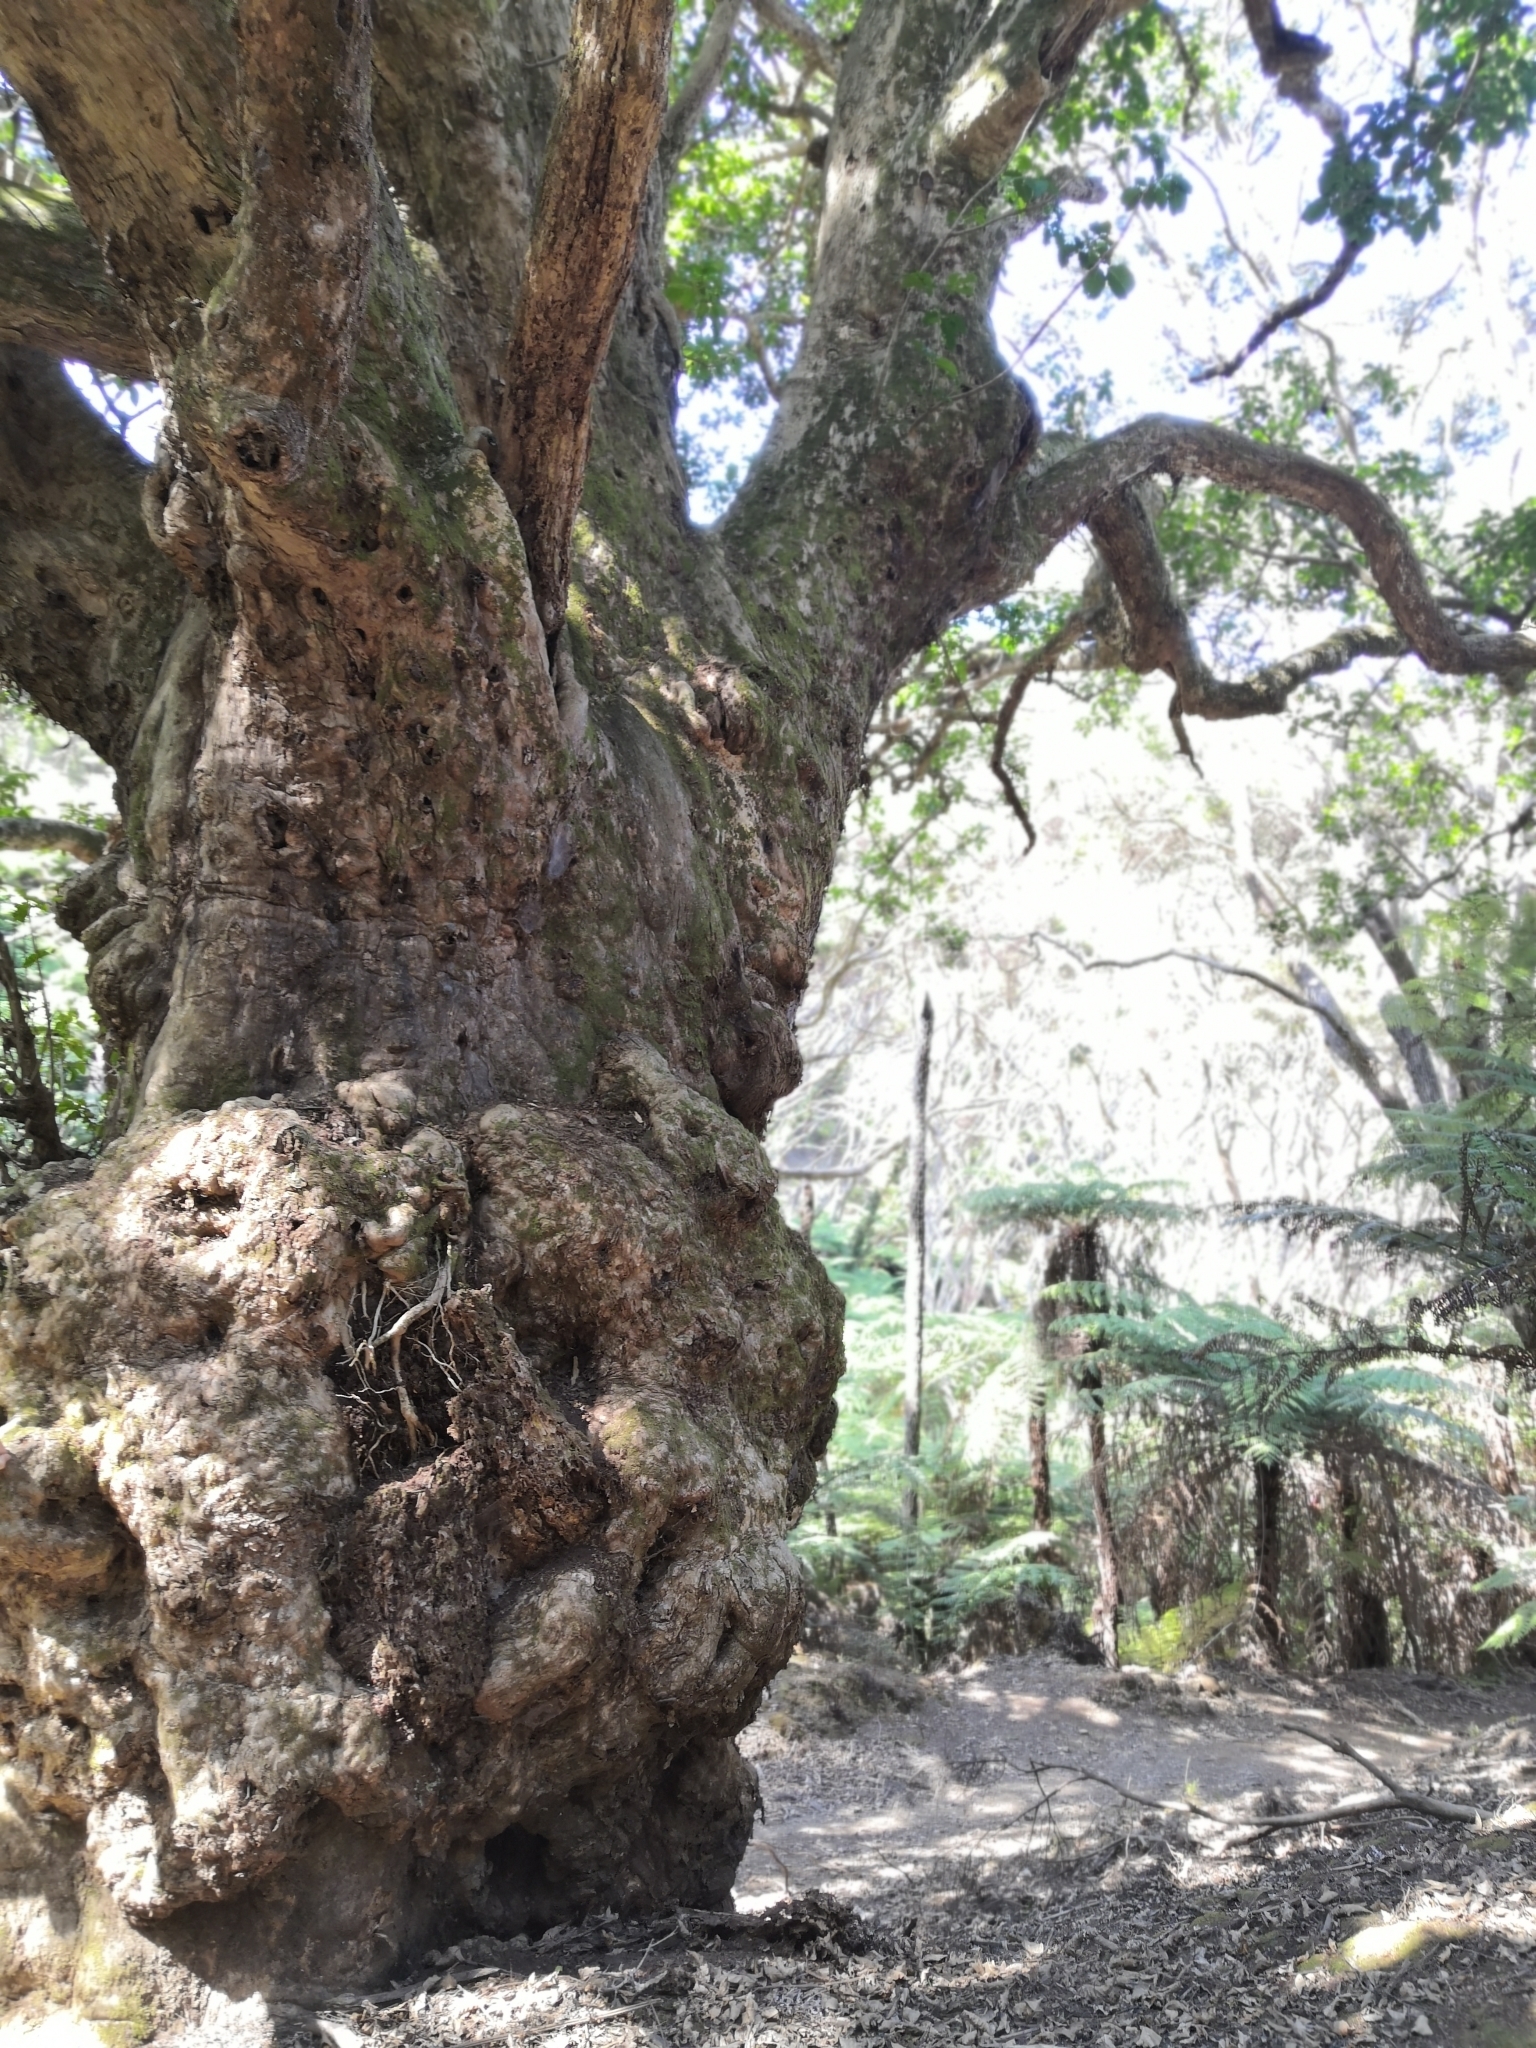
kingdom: Plantae
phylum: Tracheophyta
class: Magnoliopsida
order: Lamiales
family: Lamiaceae
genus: Vitex
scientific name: Vitex lucens
